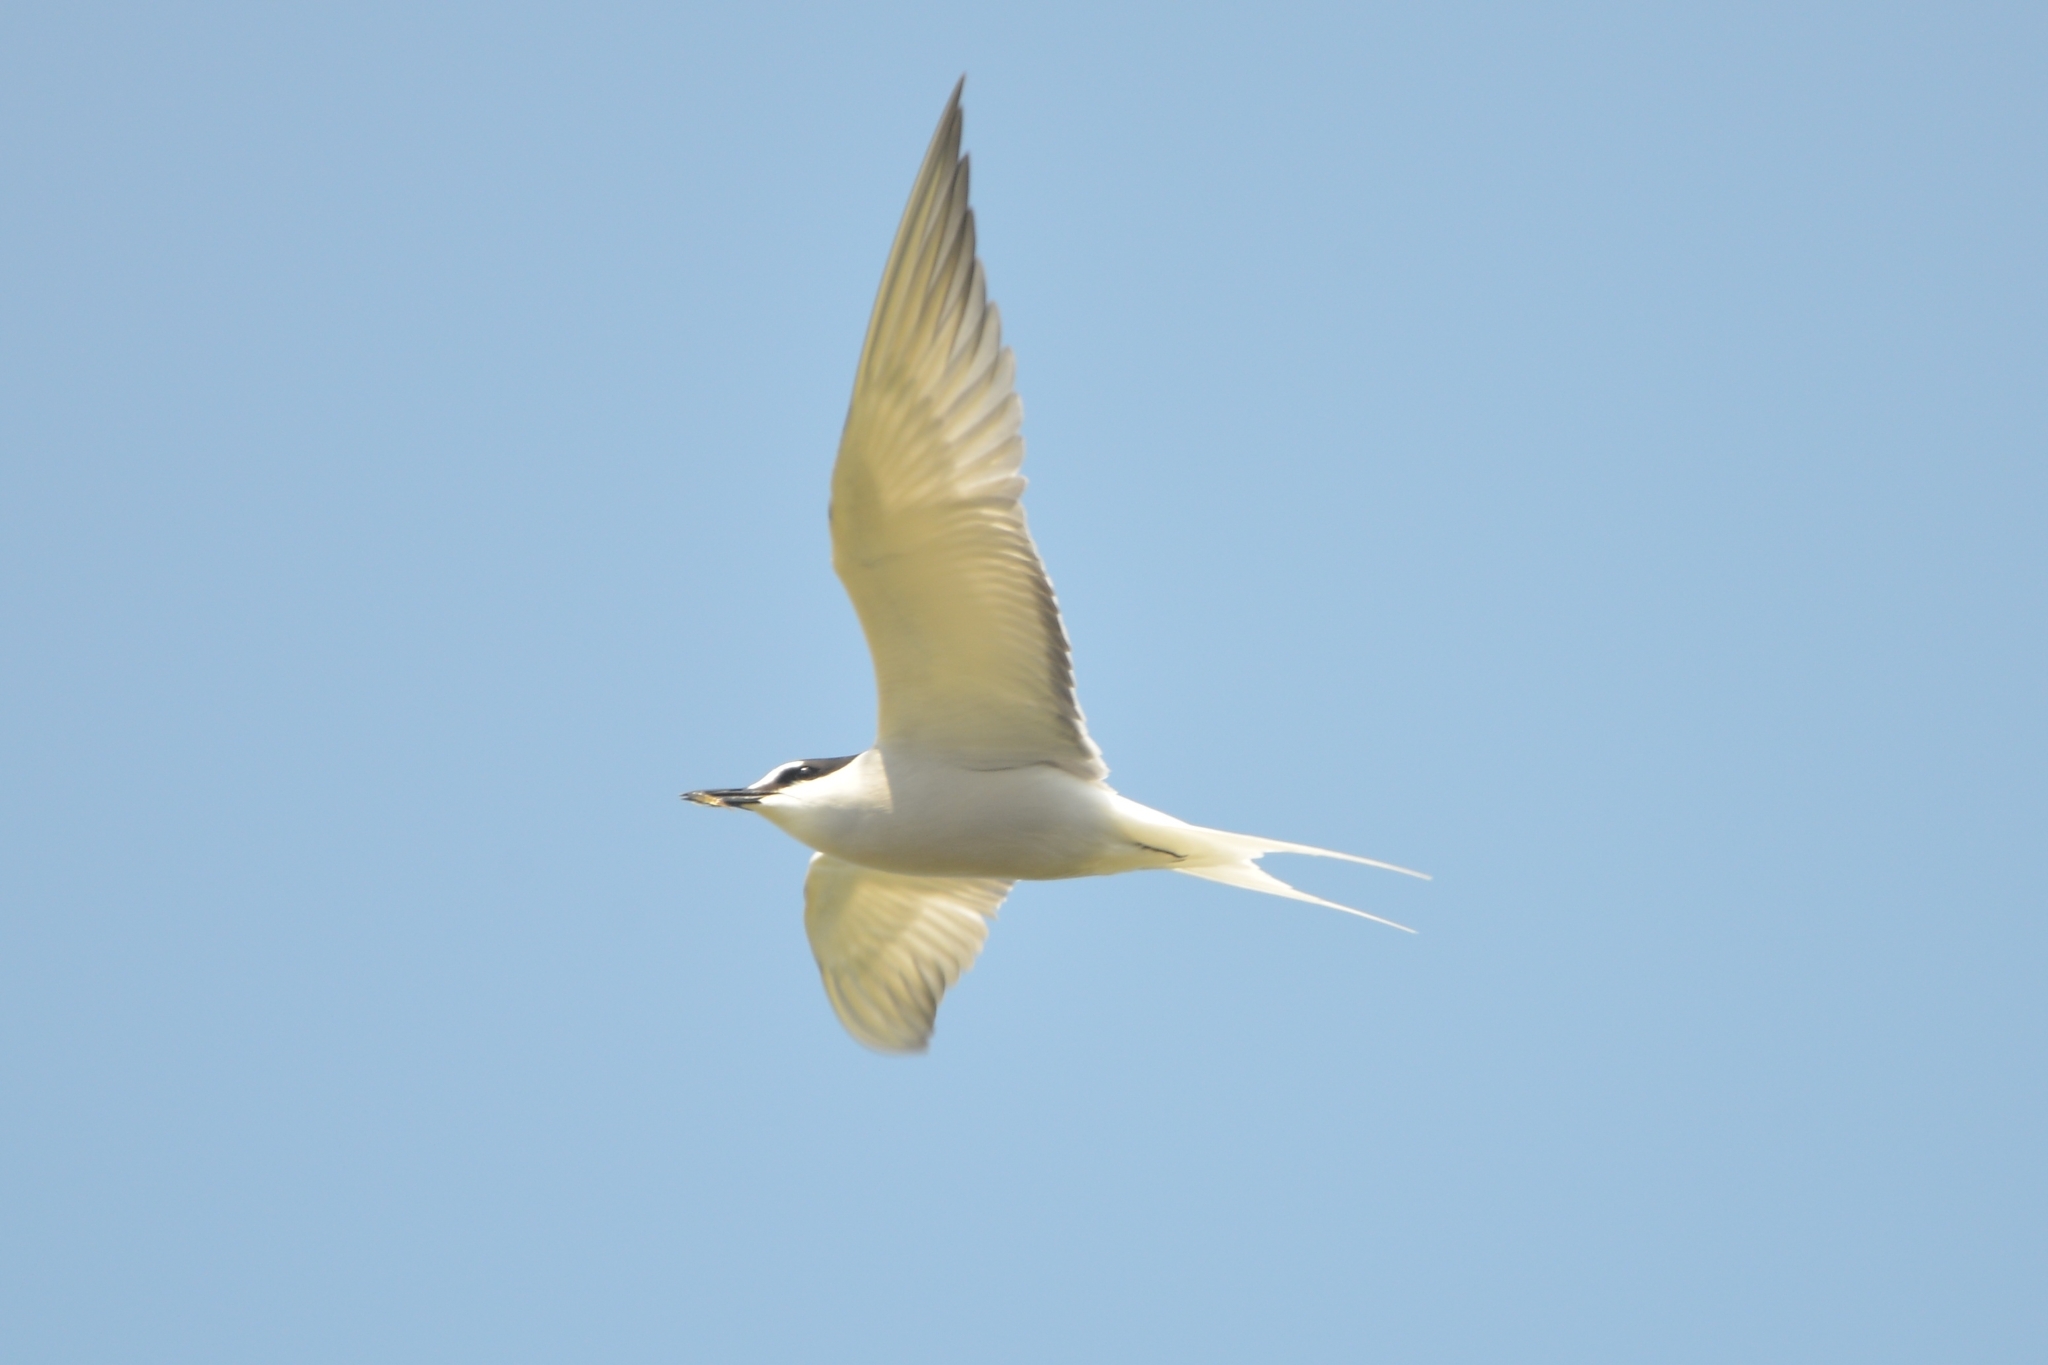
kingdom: Animalia
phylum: Chordata
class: Aves
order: Charadriiformes
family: Laridae
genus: Onychoprion
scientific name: Onychoprion aleuticus
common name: Aleutian tern
